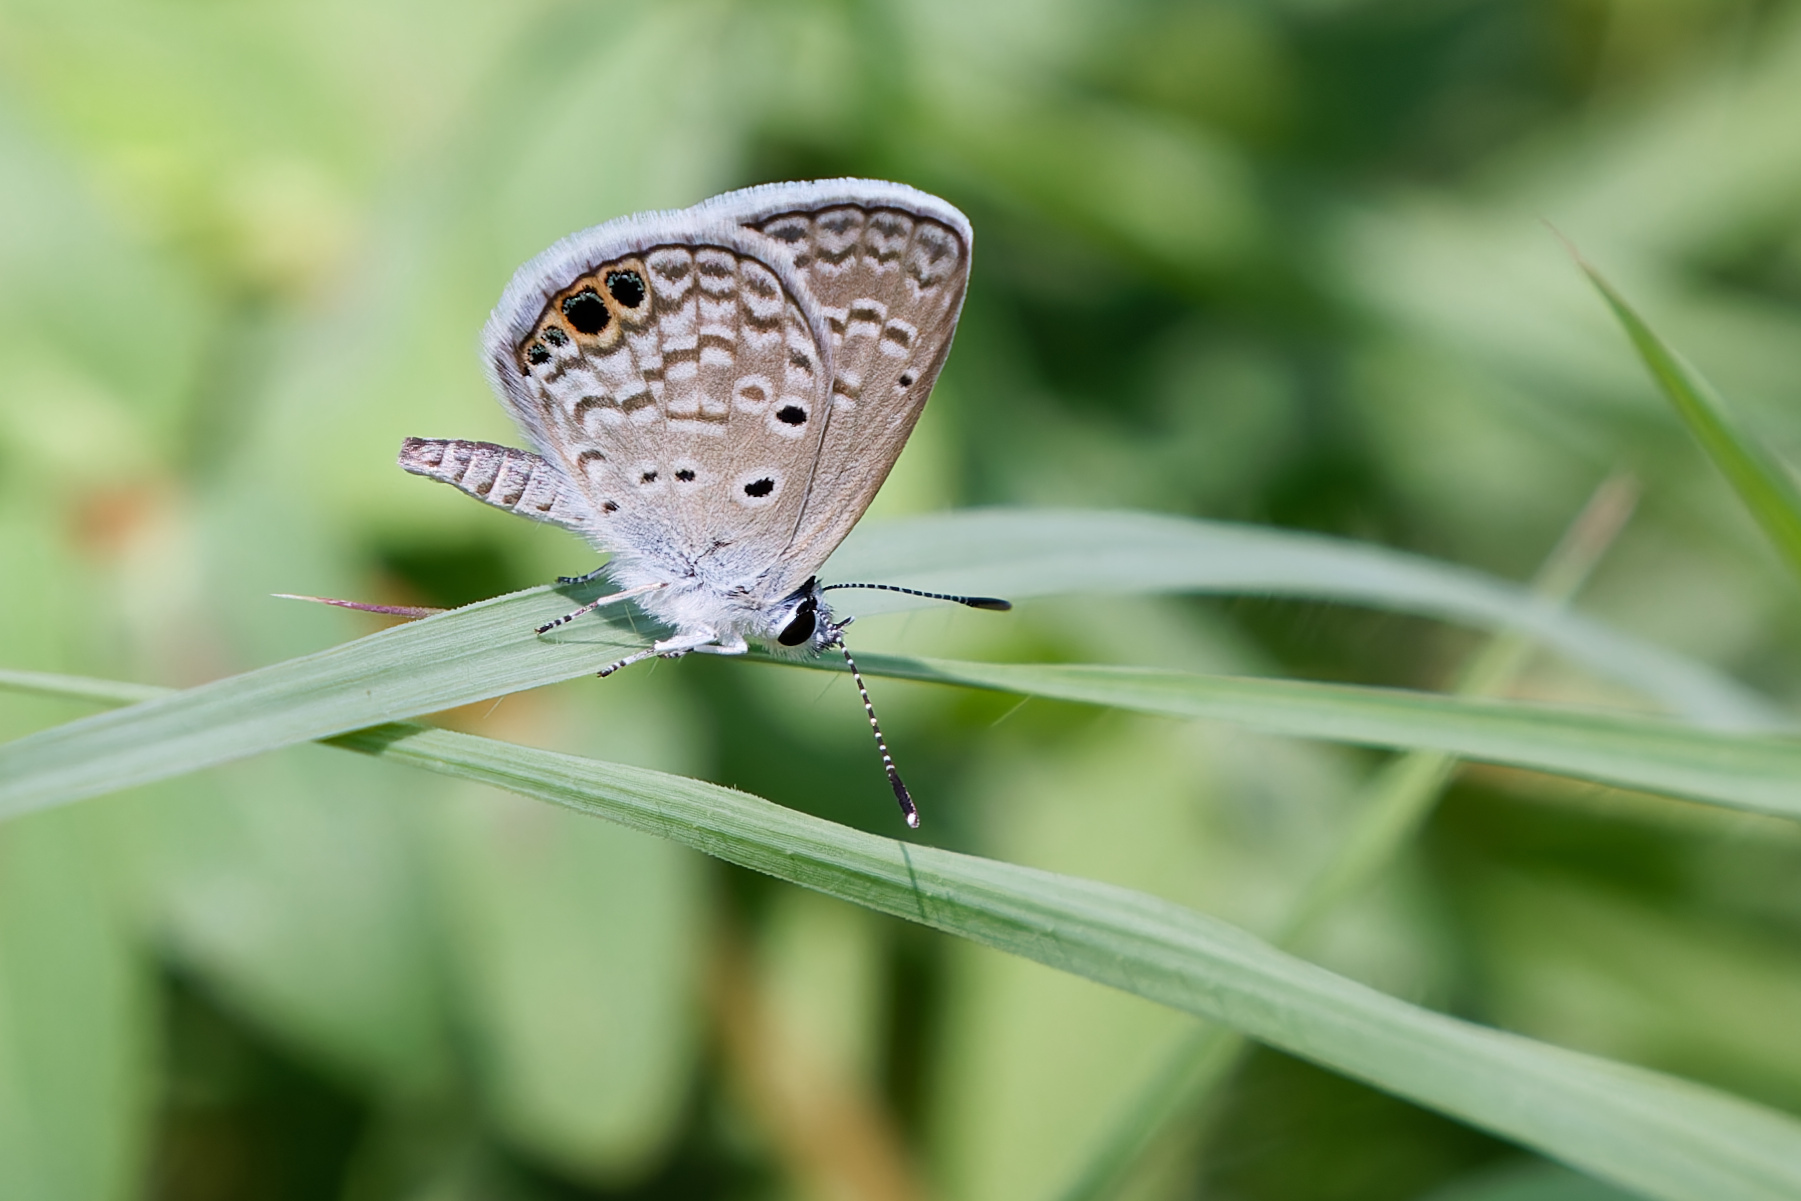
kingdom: Animalia
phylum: Arthropoda
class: Insecta
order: Lepidoptera
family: Lycaenidae
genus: Hemiargus
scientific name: Hemiargus ceraunus
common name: Ceraunus blue
